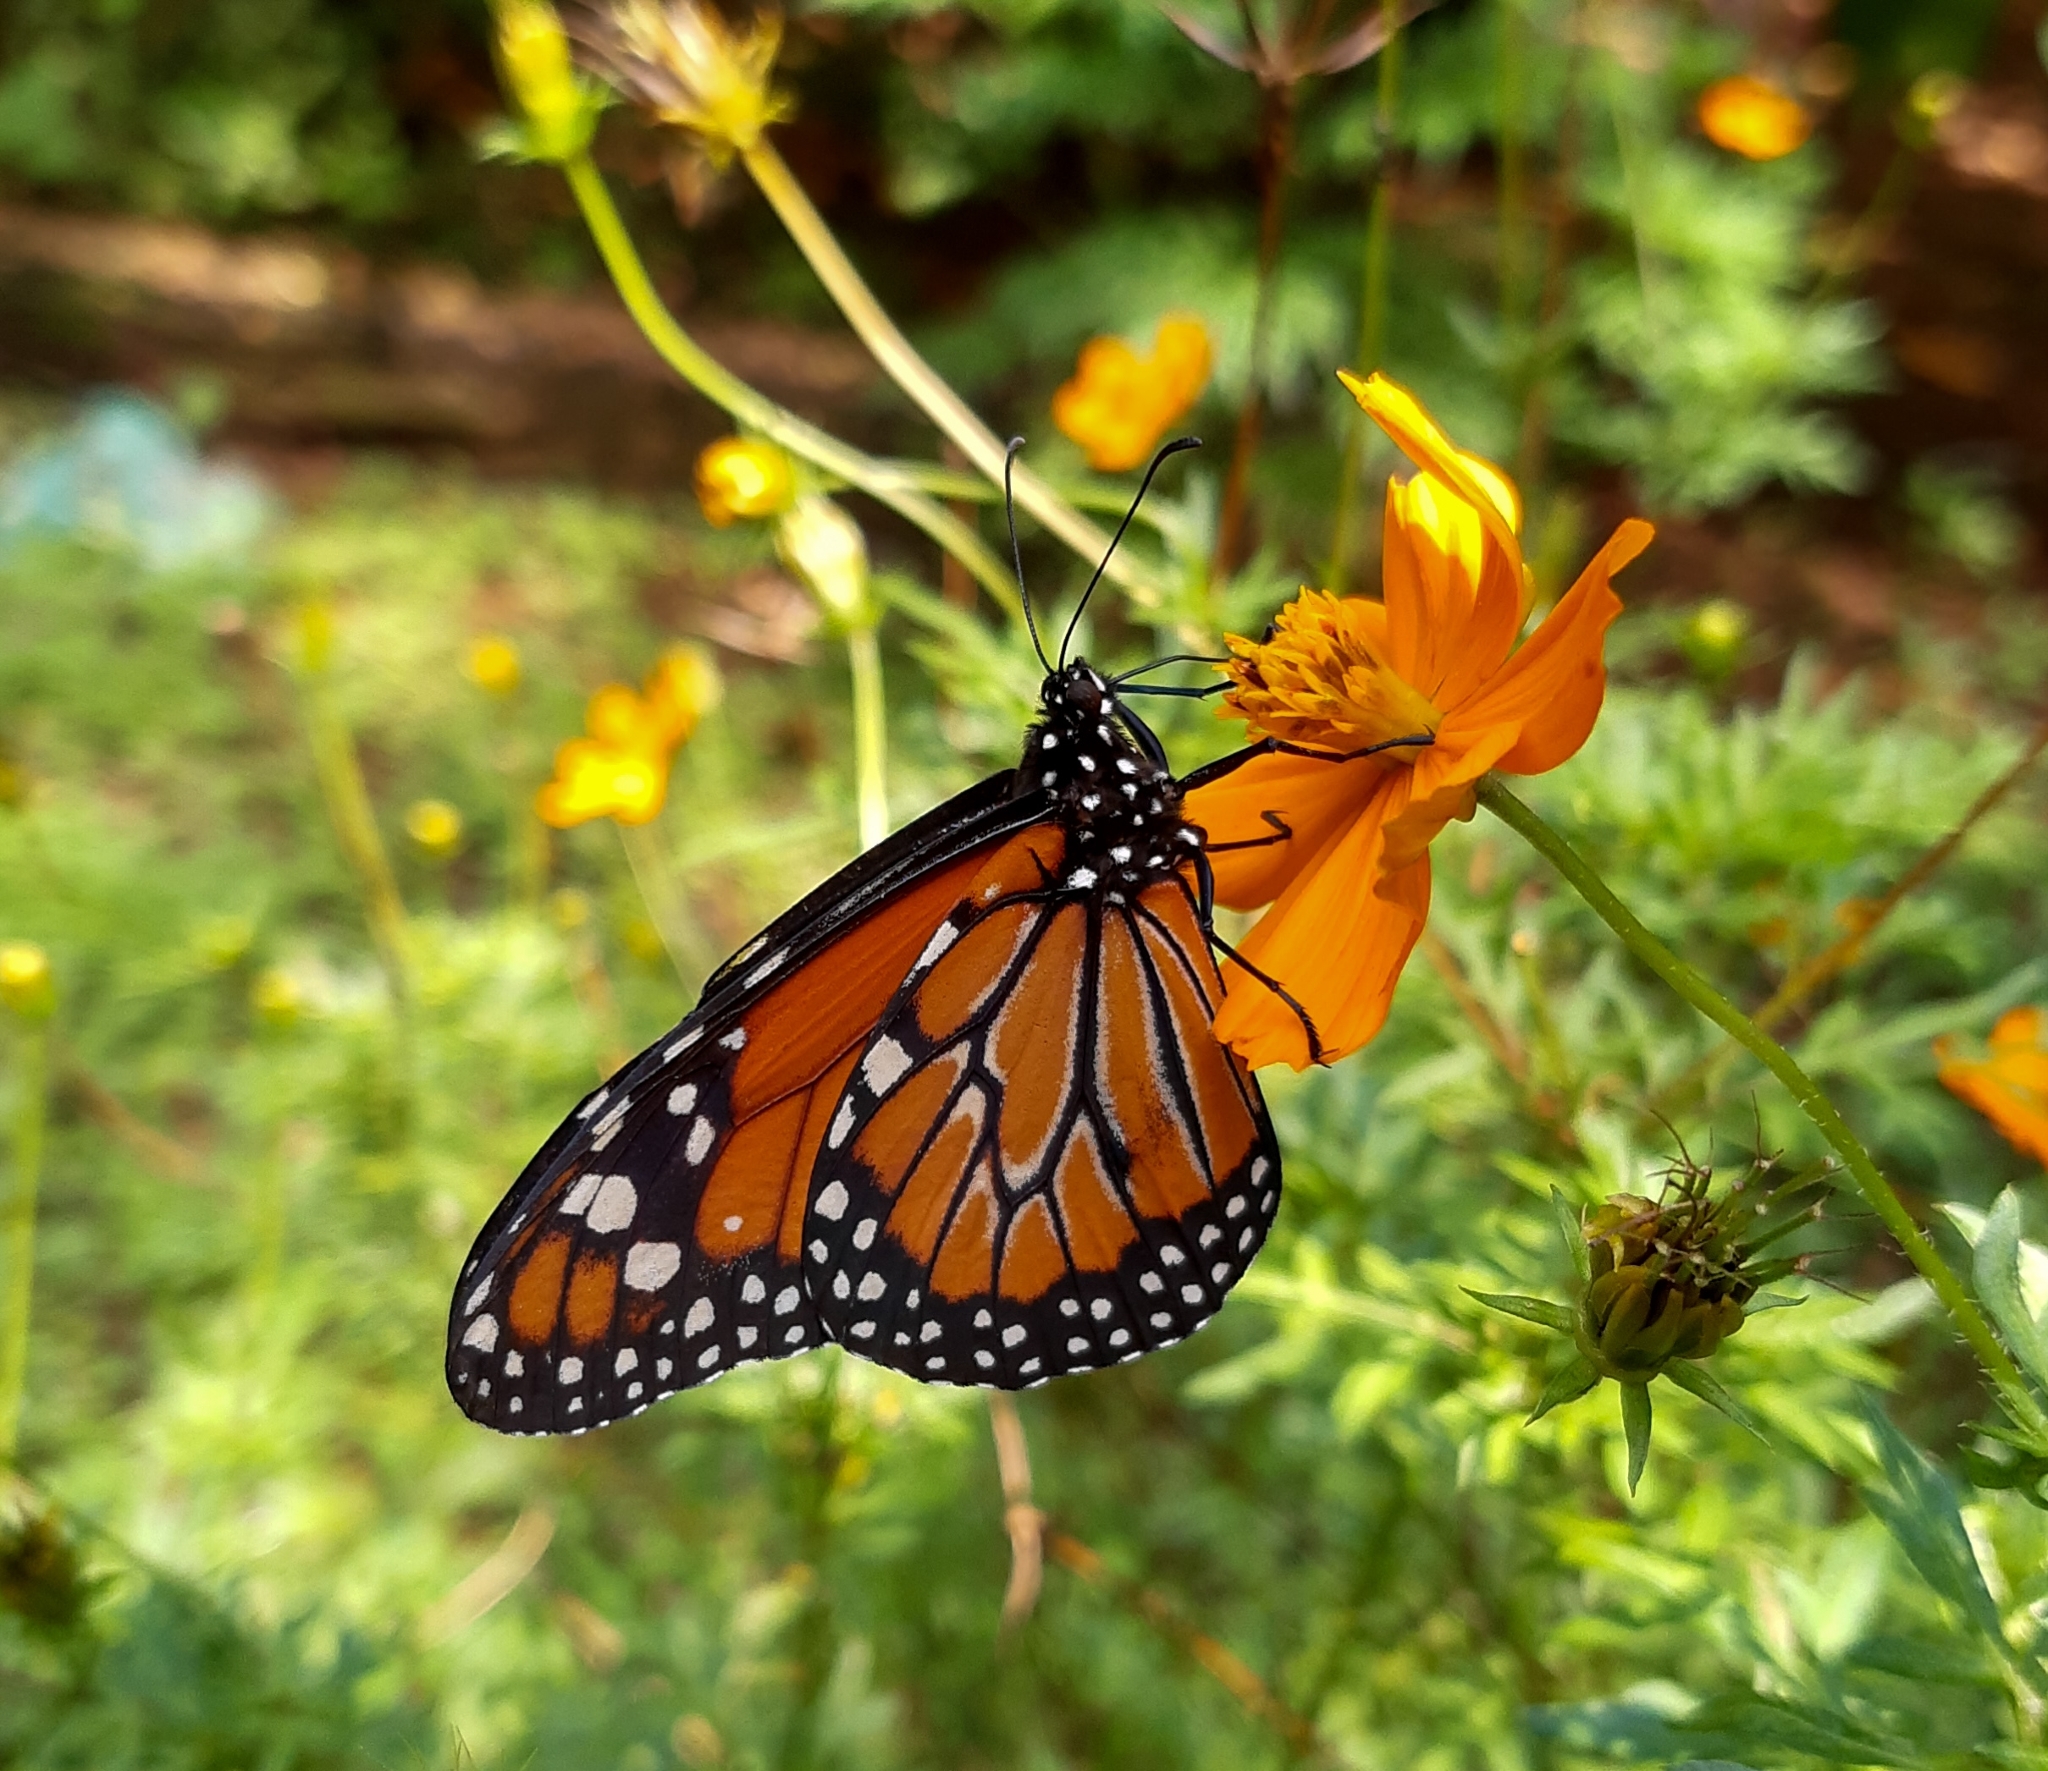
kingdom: Animalia
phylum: Arthropoda
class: Insecta
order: Lepidoptera
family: Nymphalidae
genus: Danaus
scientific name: Danaus erippus
